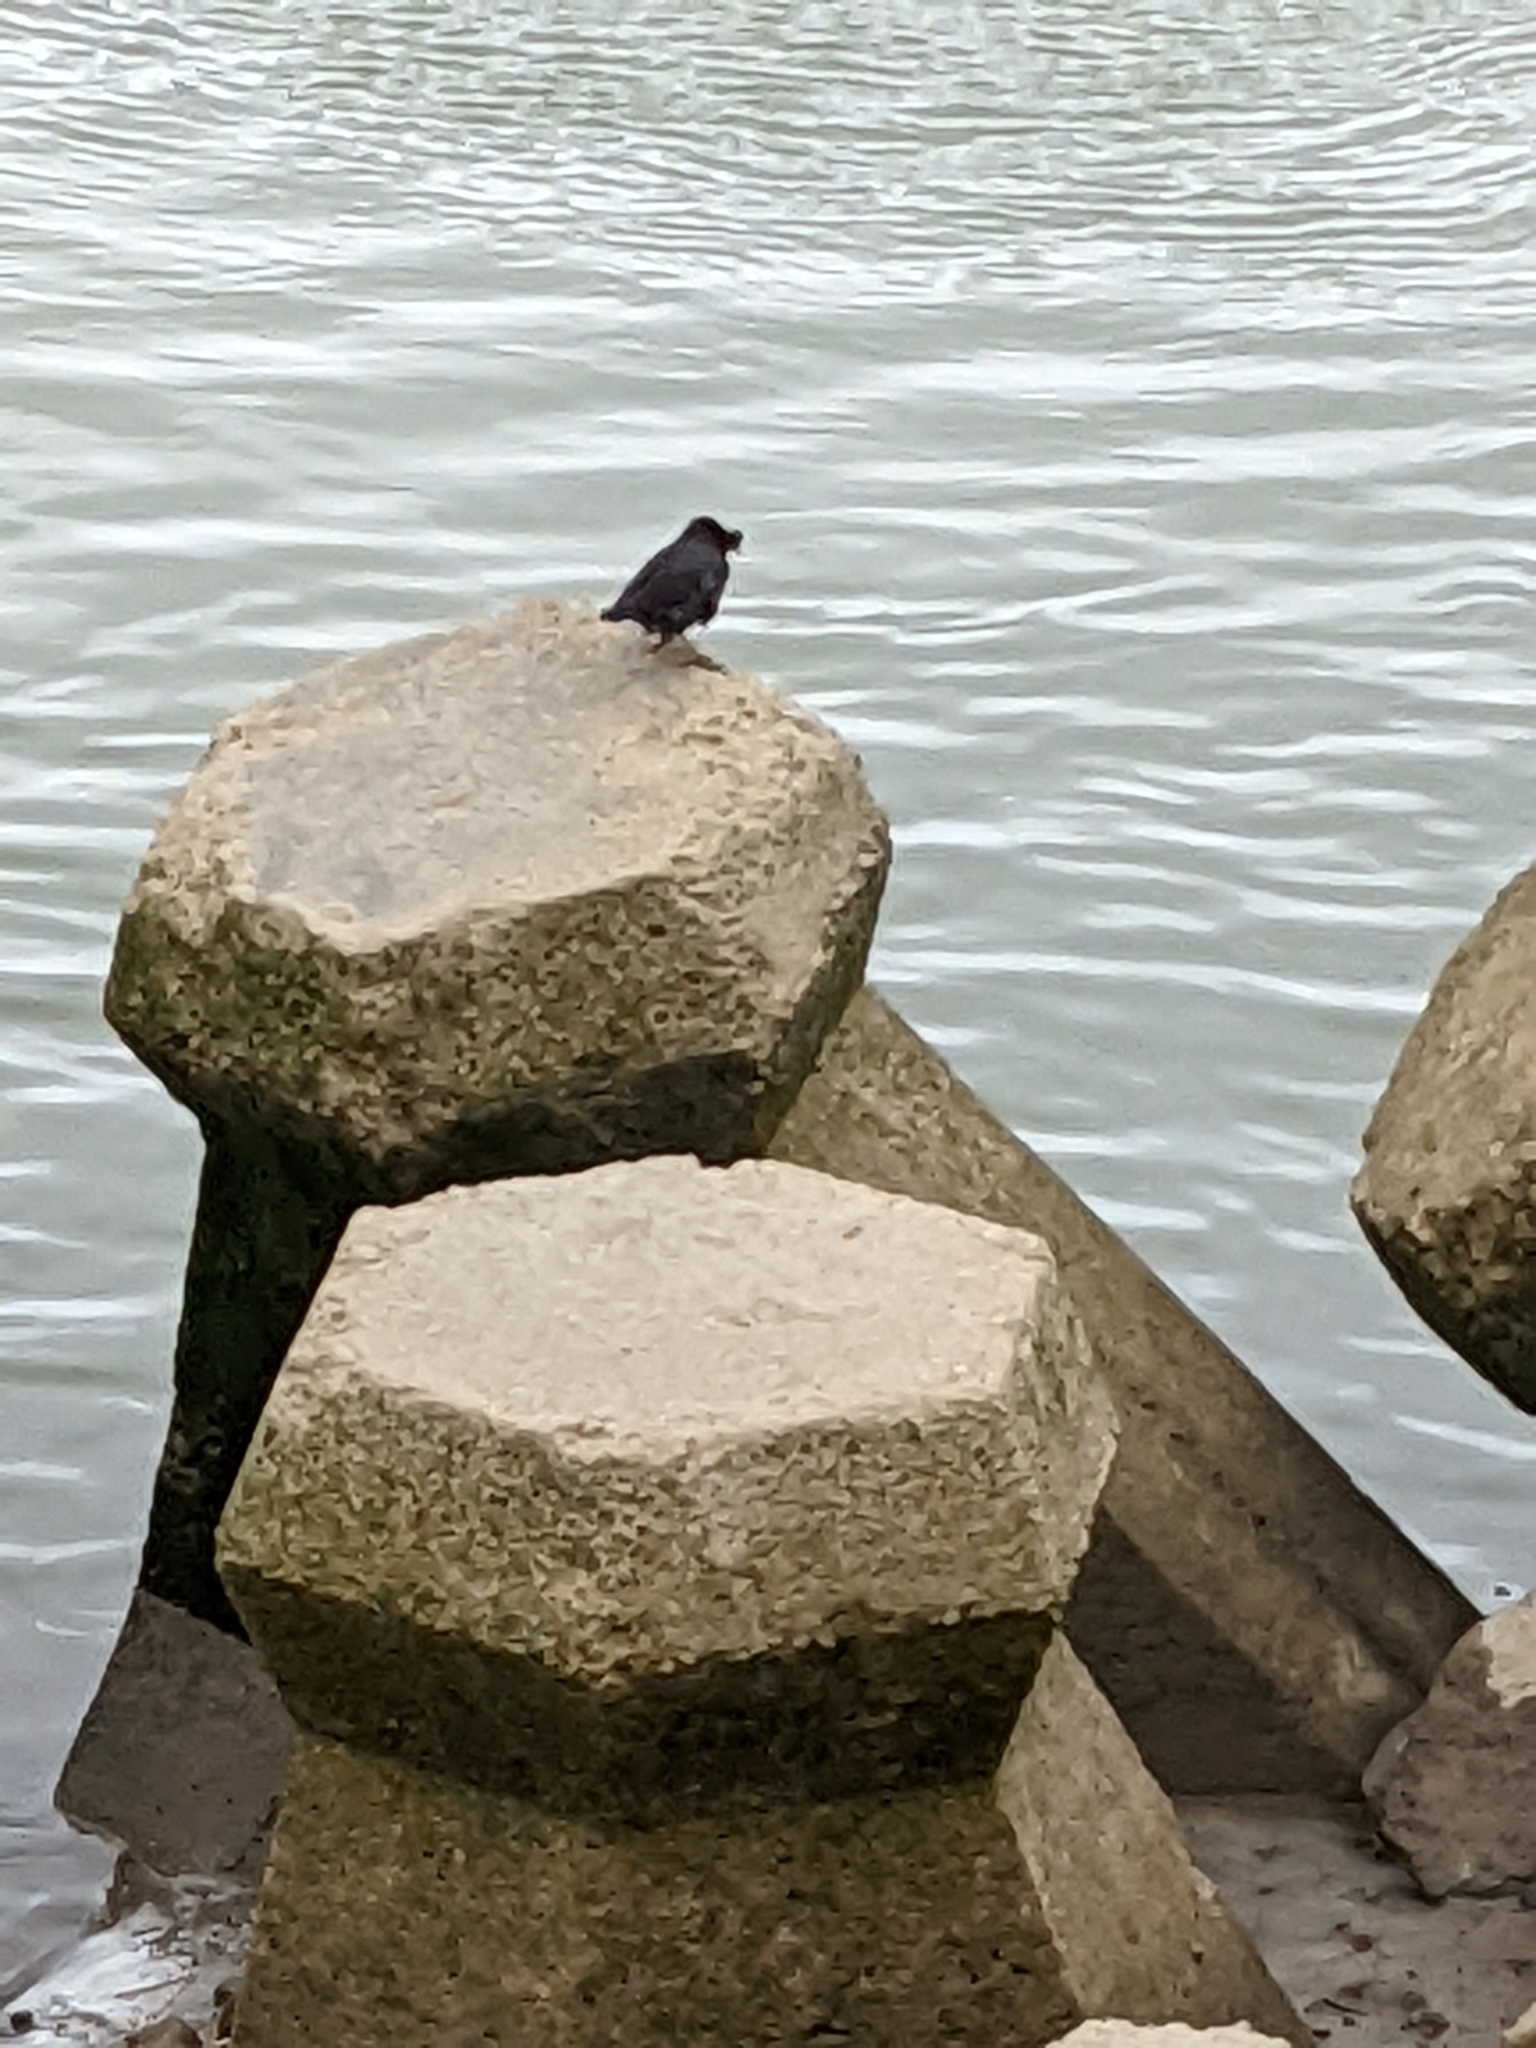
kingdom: Animalia
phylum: Chordata
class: Aves
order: Passeriformes
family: Sturnidae
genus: Acridotheres
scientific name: Acridotheres cristatellus
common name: Crested myna
